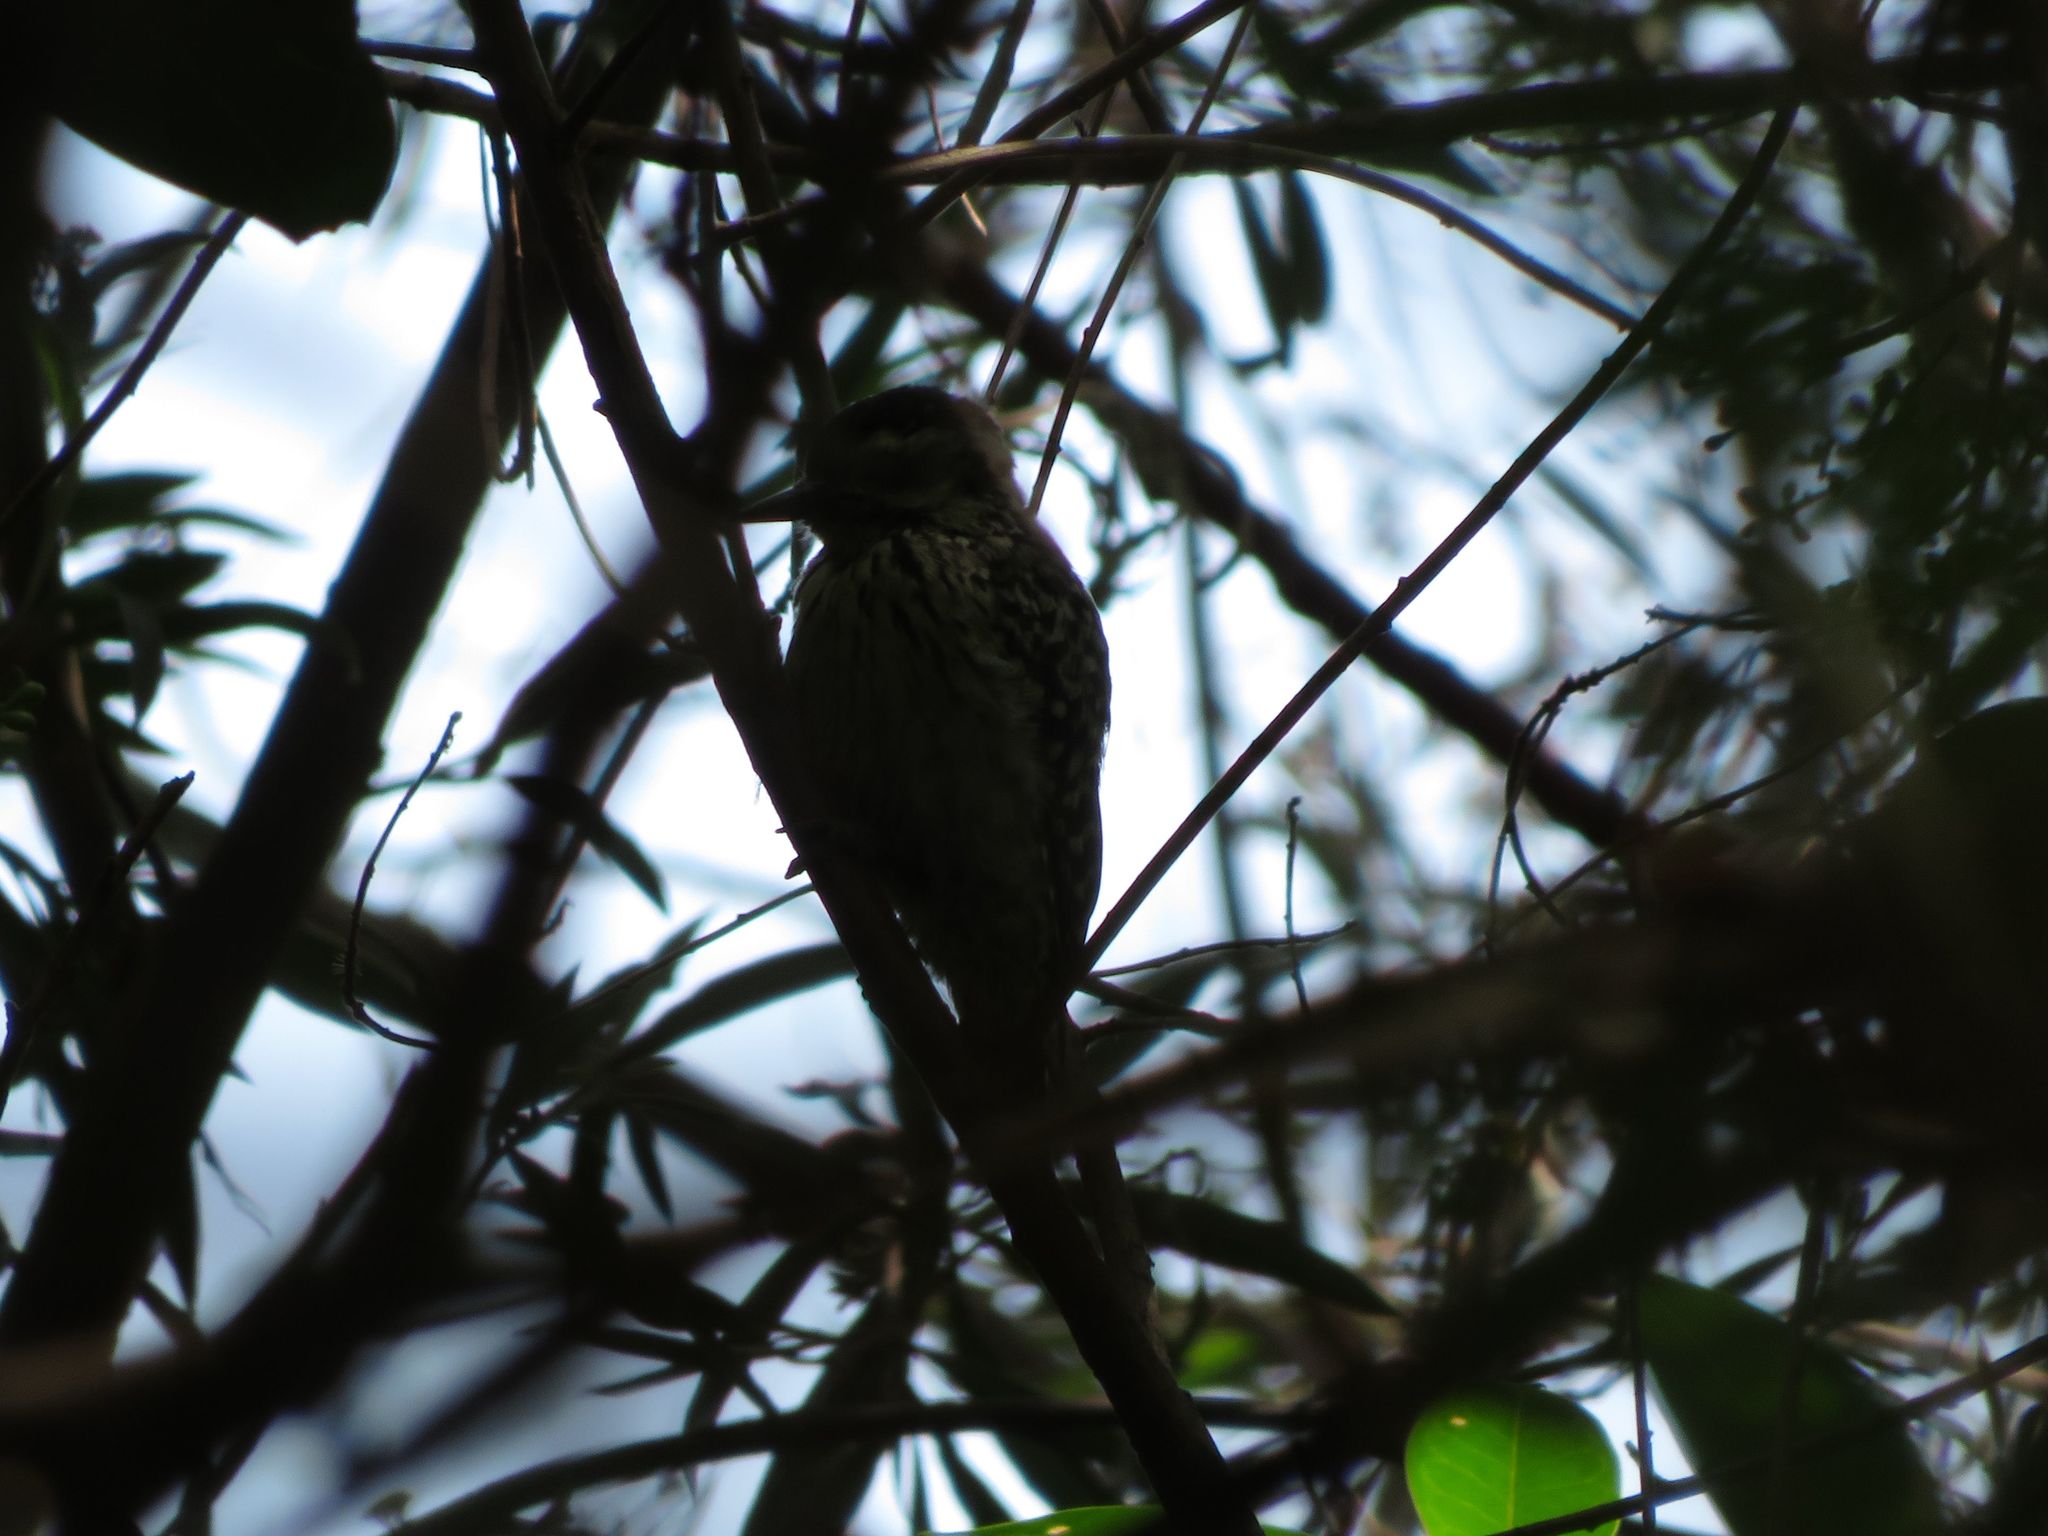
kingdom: Animalia
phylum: Chordata
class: Aves
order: Piciformes
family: Picidae
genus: Veniliornis
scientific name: Veniliornis mixtus
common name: Checkered woodpecker
